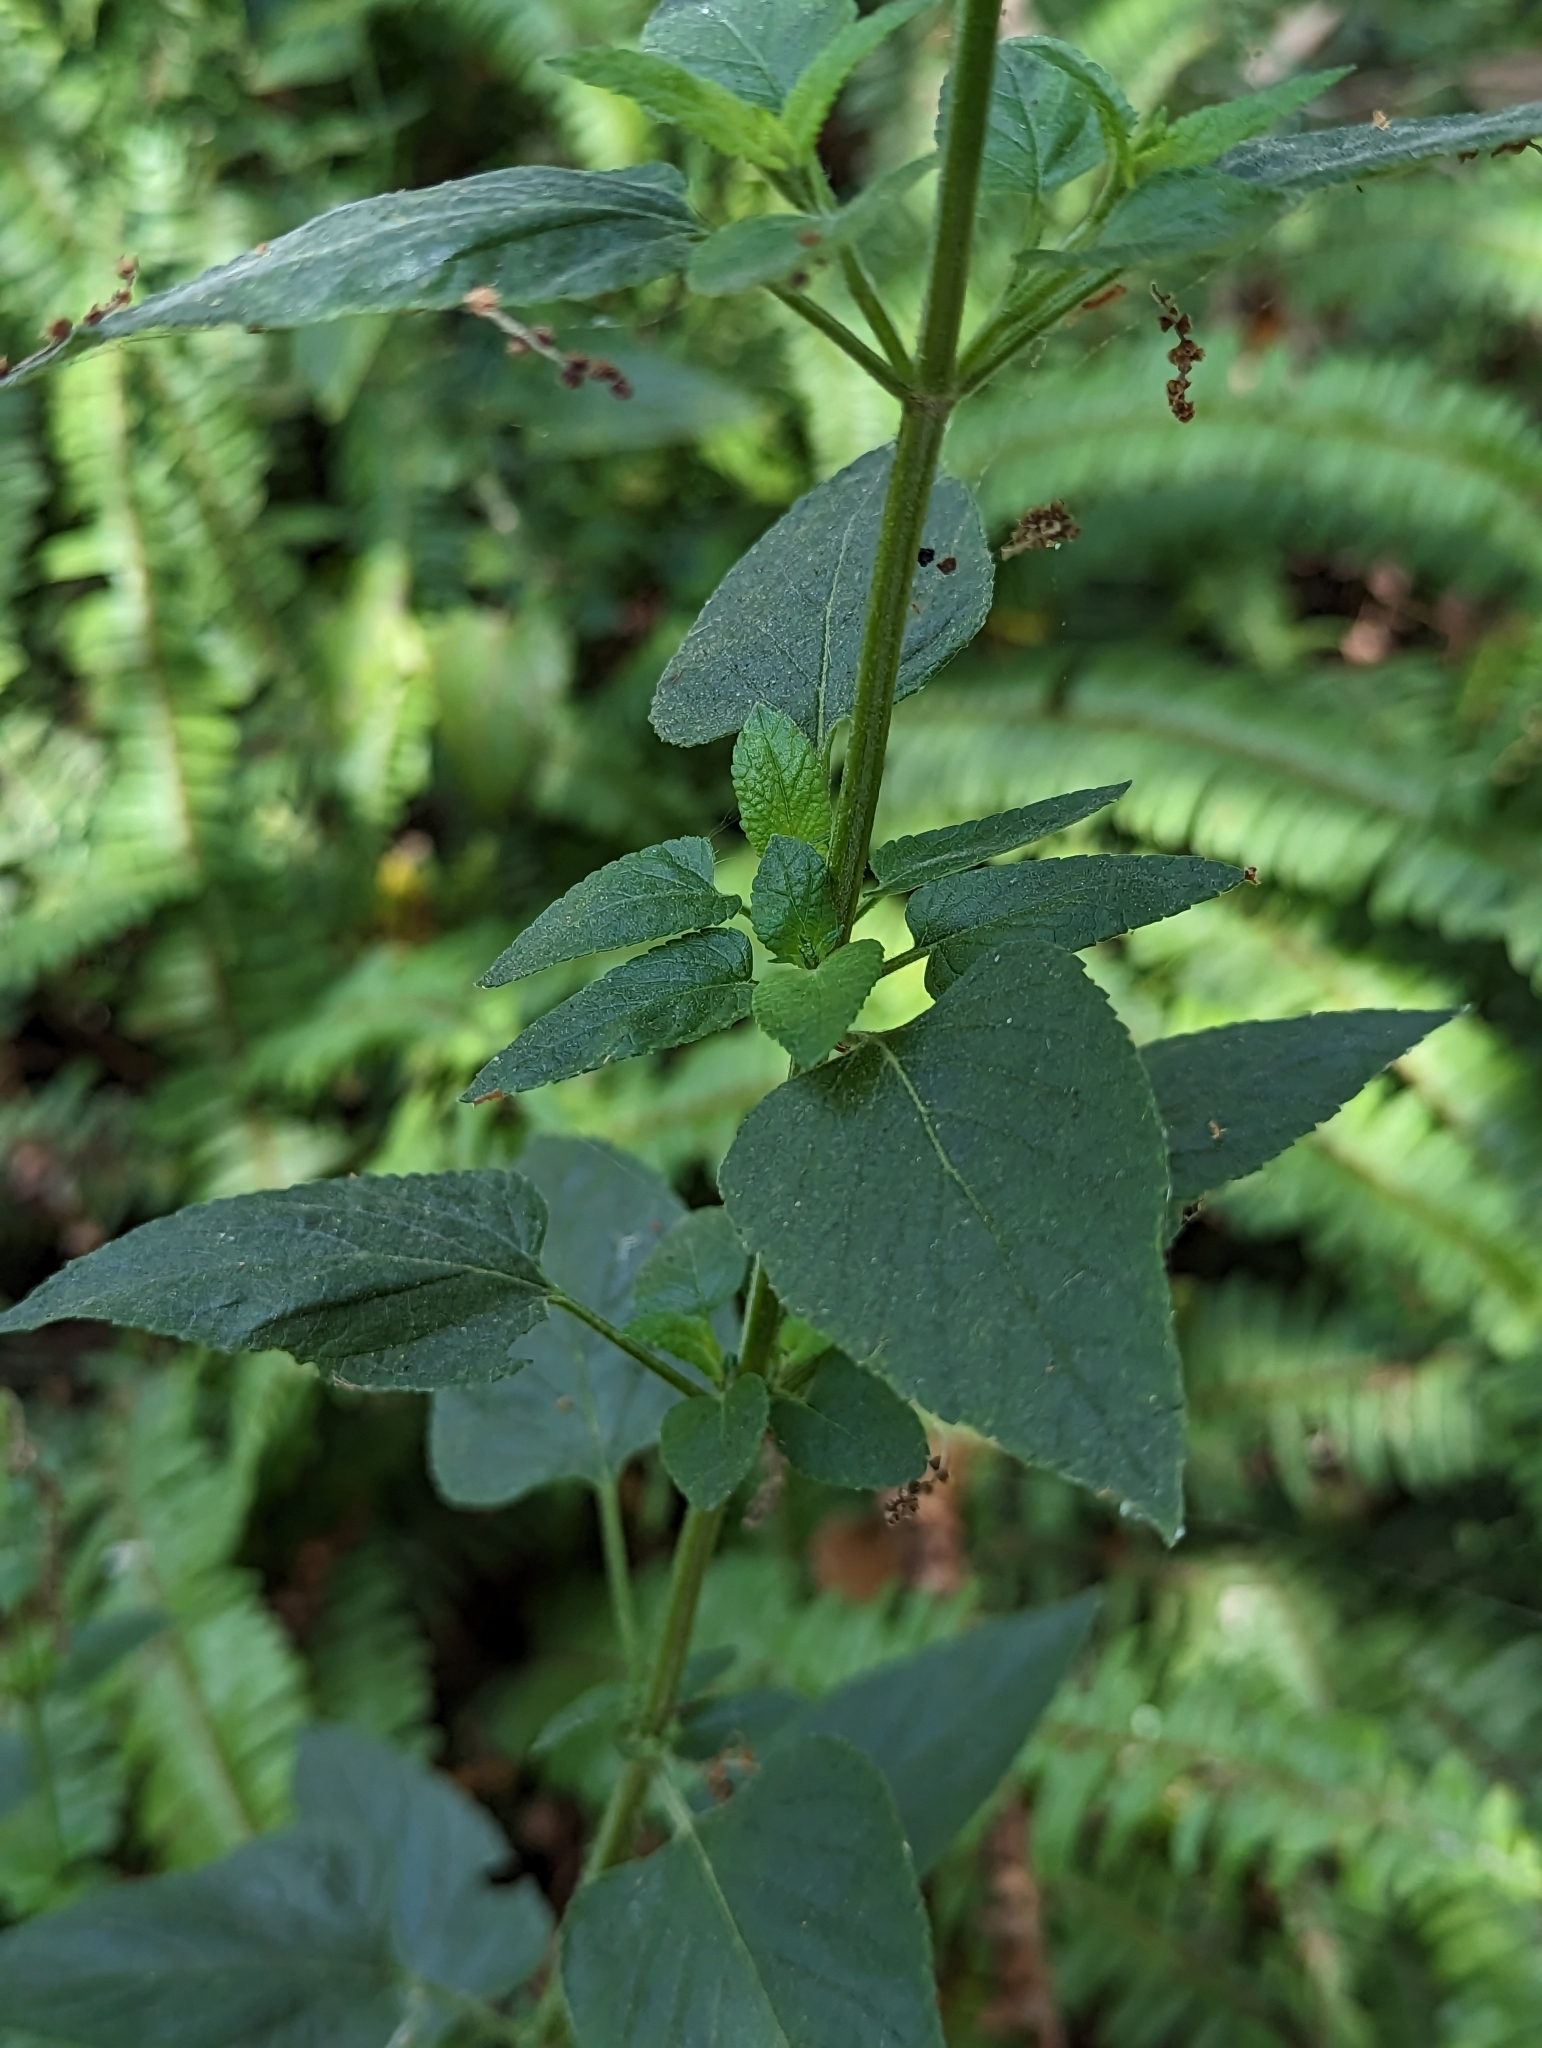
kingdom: Plantae
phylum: Tracheophyta
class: Magnoliopsida
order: Lamiales
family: Lamiaceae
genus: Salvia
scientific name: Salvia coccinea
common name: Blood sage
